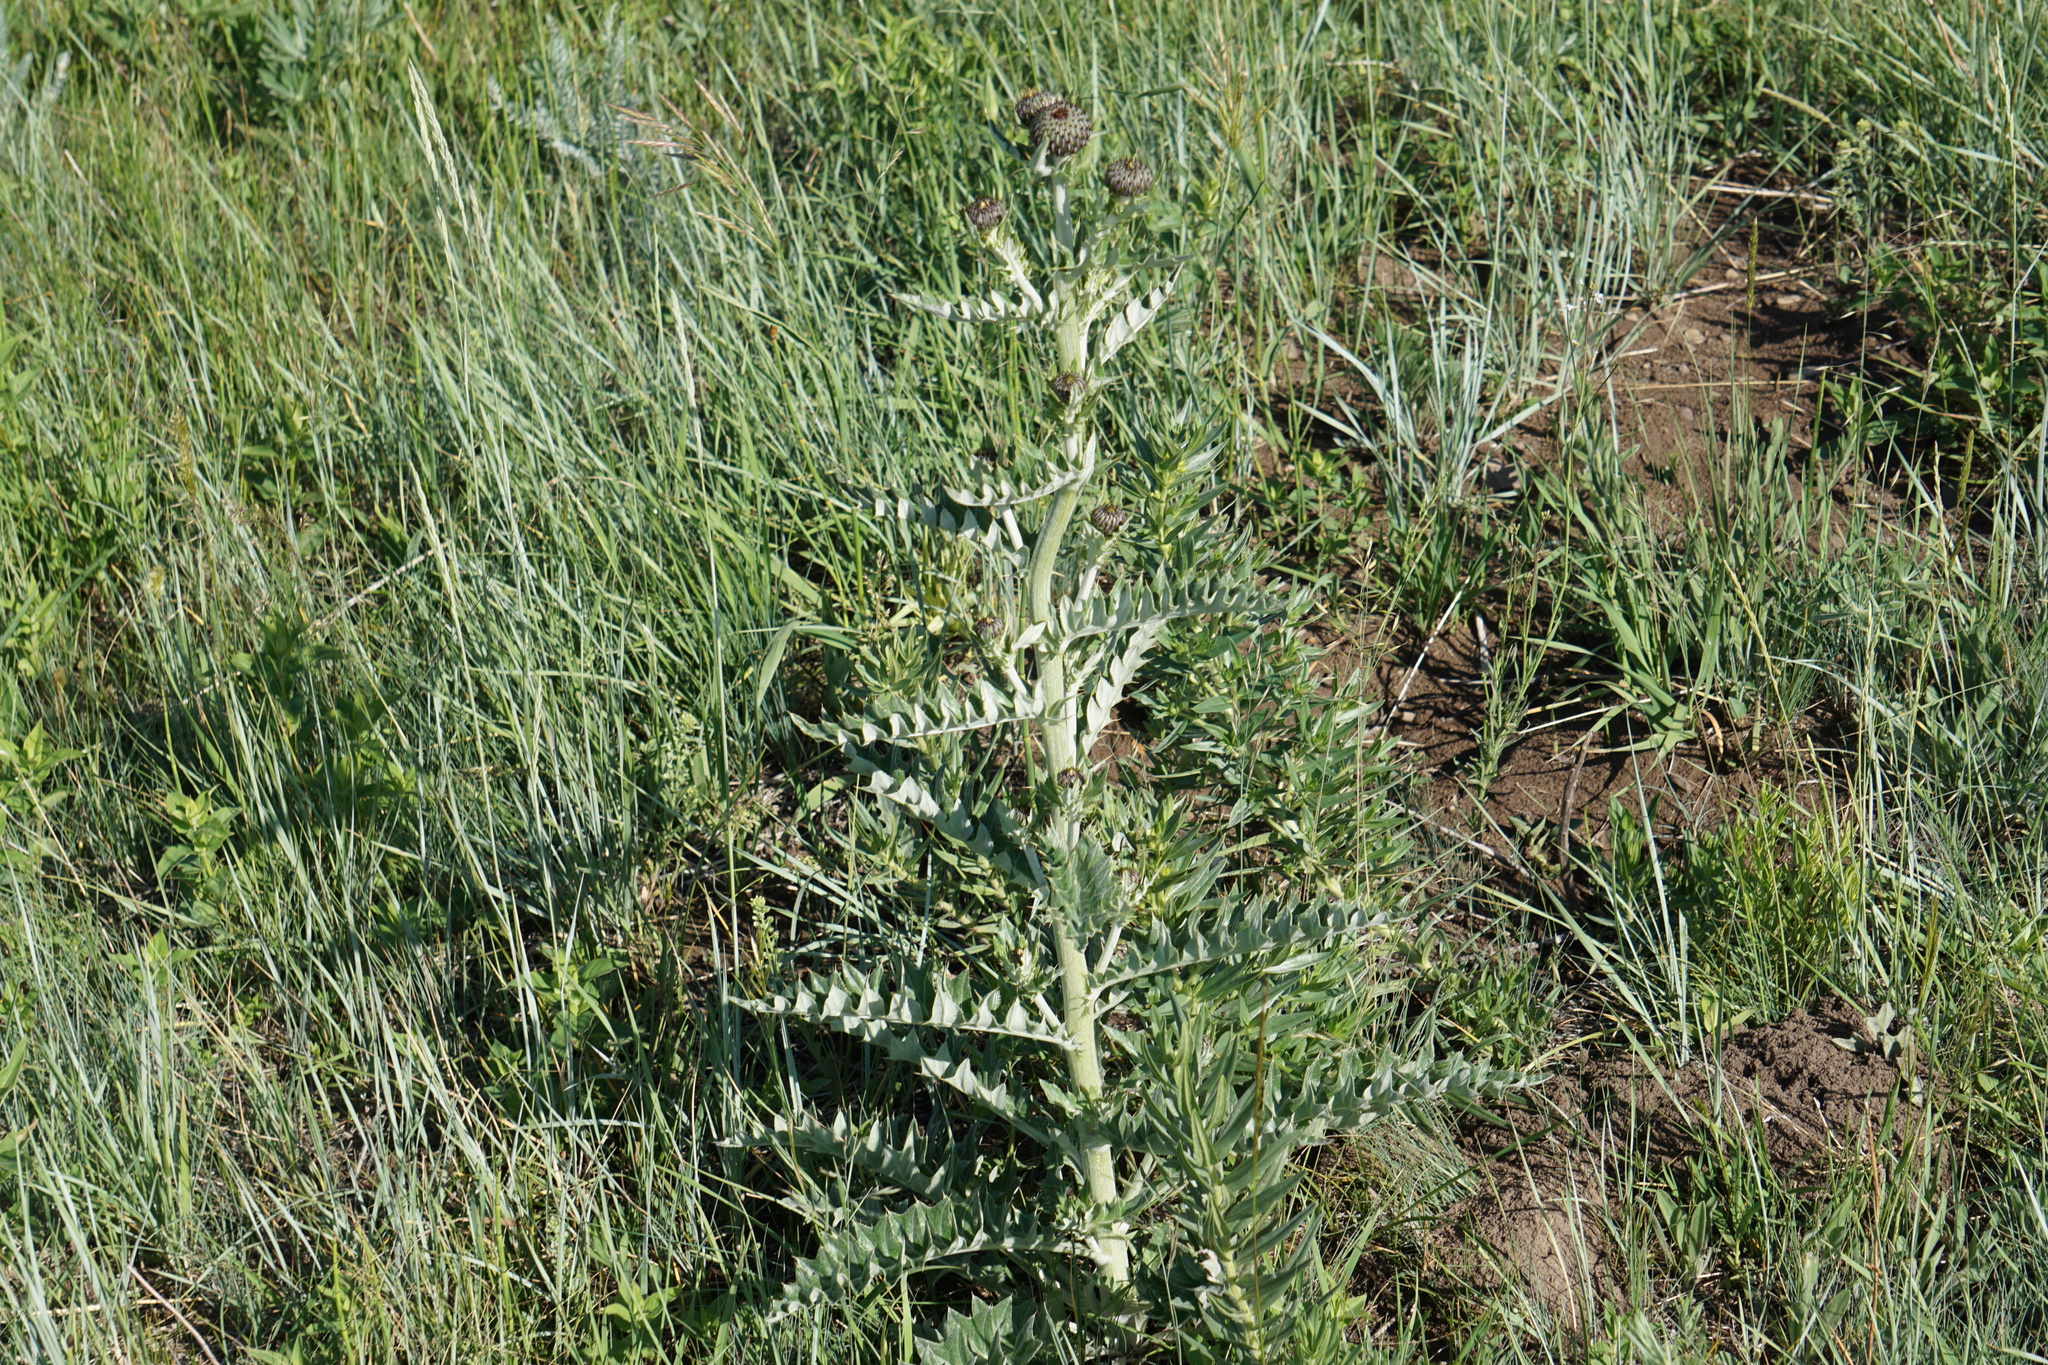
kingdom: Plantae
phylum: Tracheophyta
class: Magnoliopsida
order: Asterales
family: Asteraceae
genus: Cirsium
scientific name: Cirsium undulatum
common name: Pasture thistle
